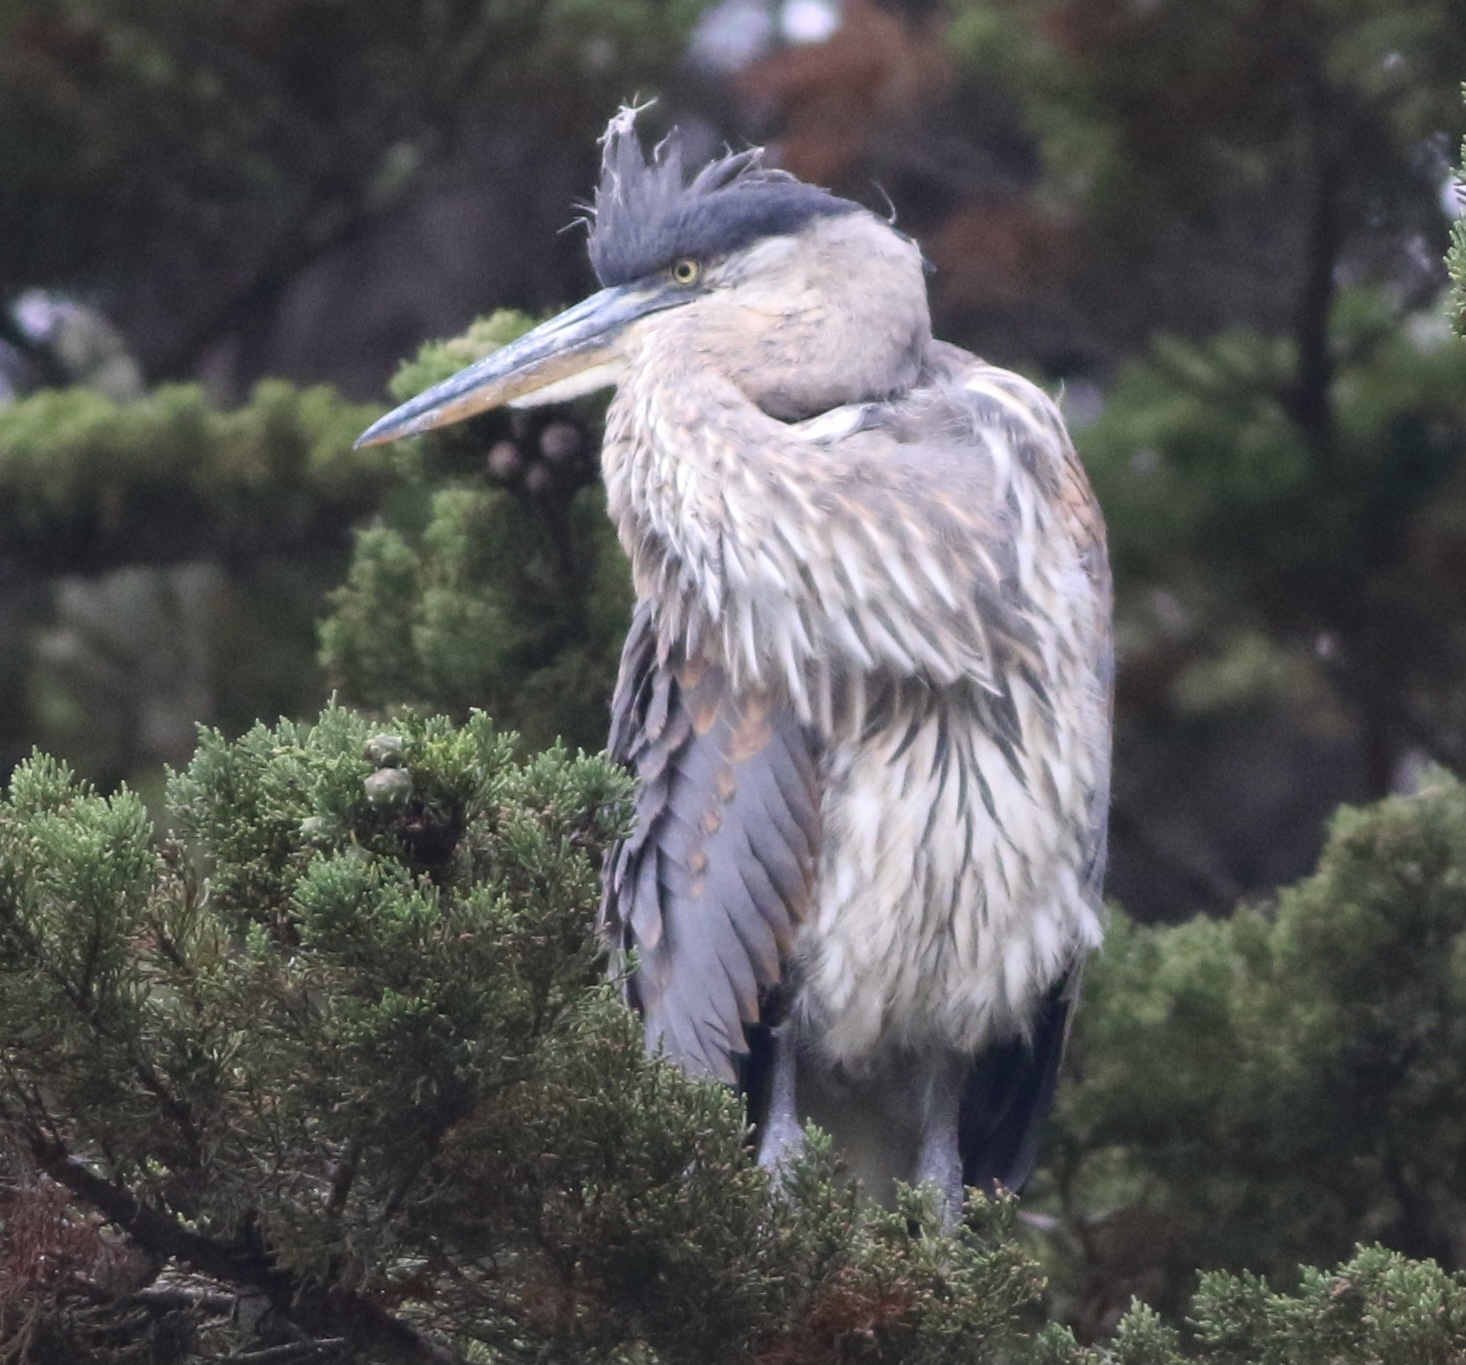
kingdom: Animalia
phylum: Chordata
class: Aves
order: Pelecaniformes
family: Ardeidae
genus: Ardea
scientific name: Ardea herodias
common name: Great blue heron
